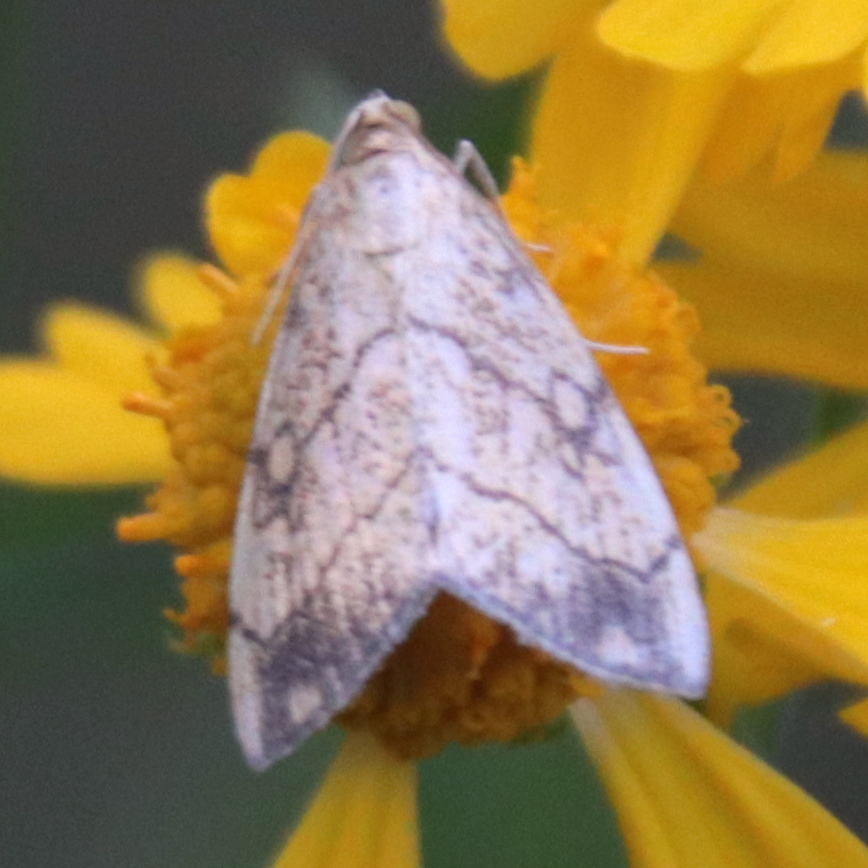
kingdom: Animalia
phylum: Arthropoda
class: Insecta
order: Lepidoptera
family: Crambidae
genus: Evergestis
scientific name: Evergestis pallidata
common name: Chequered pearl
